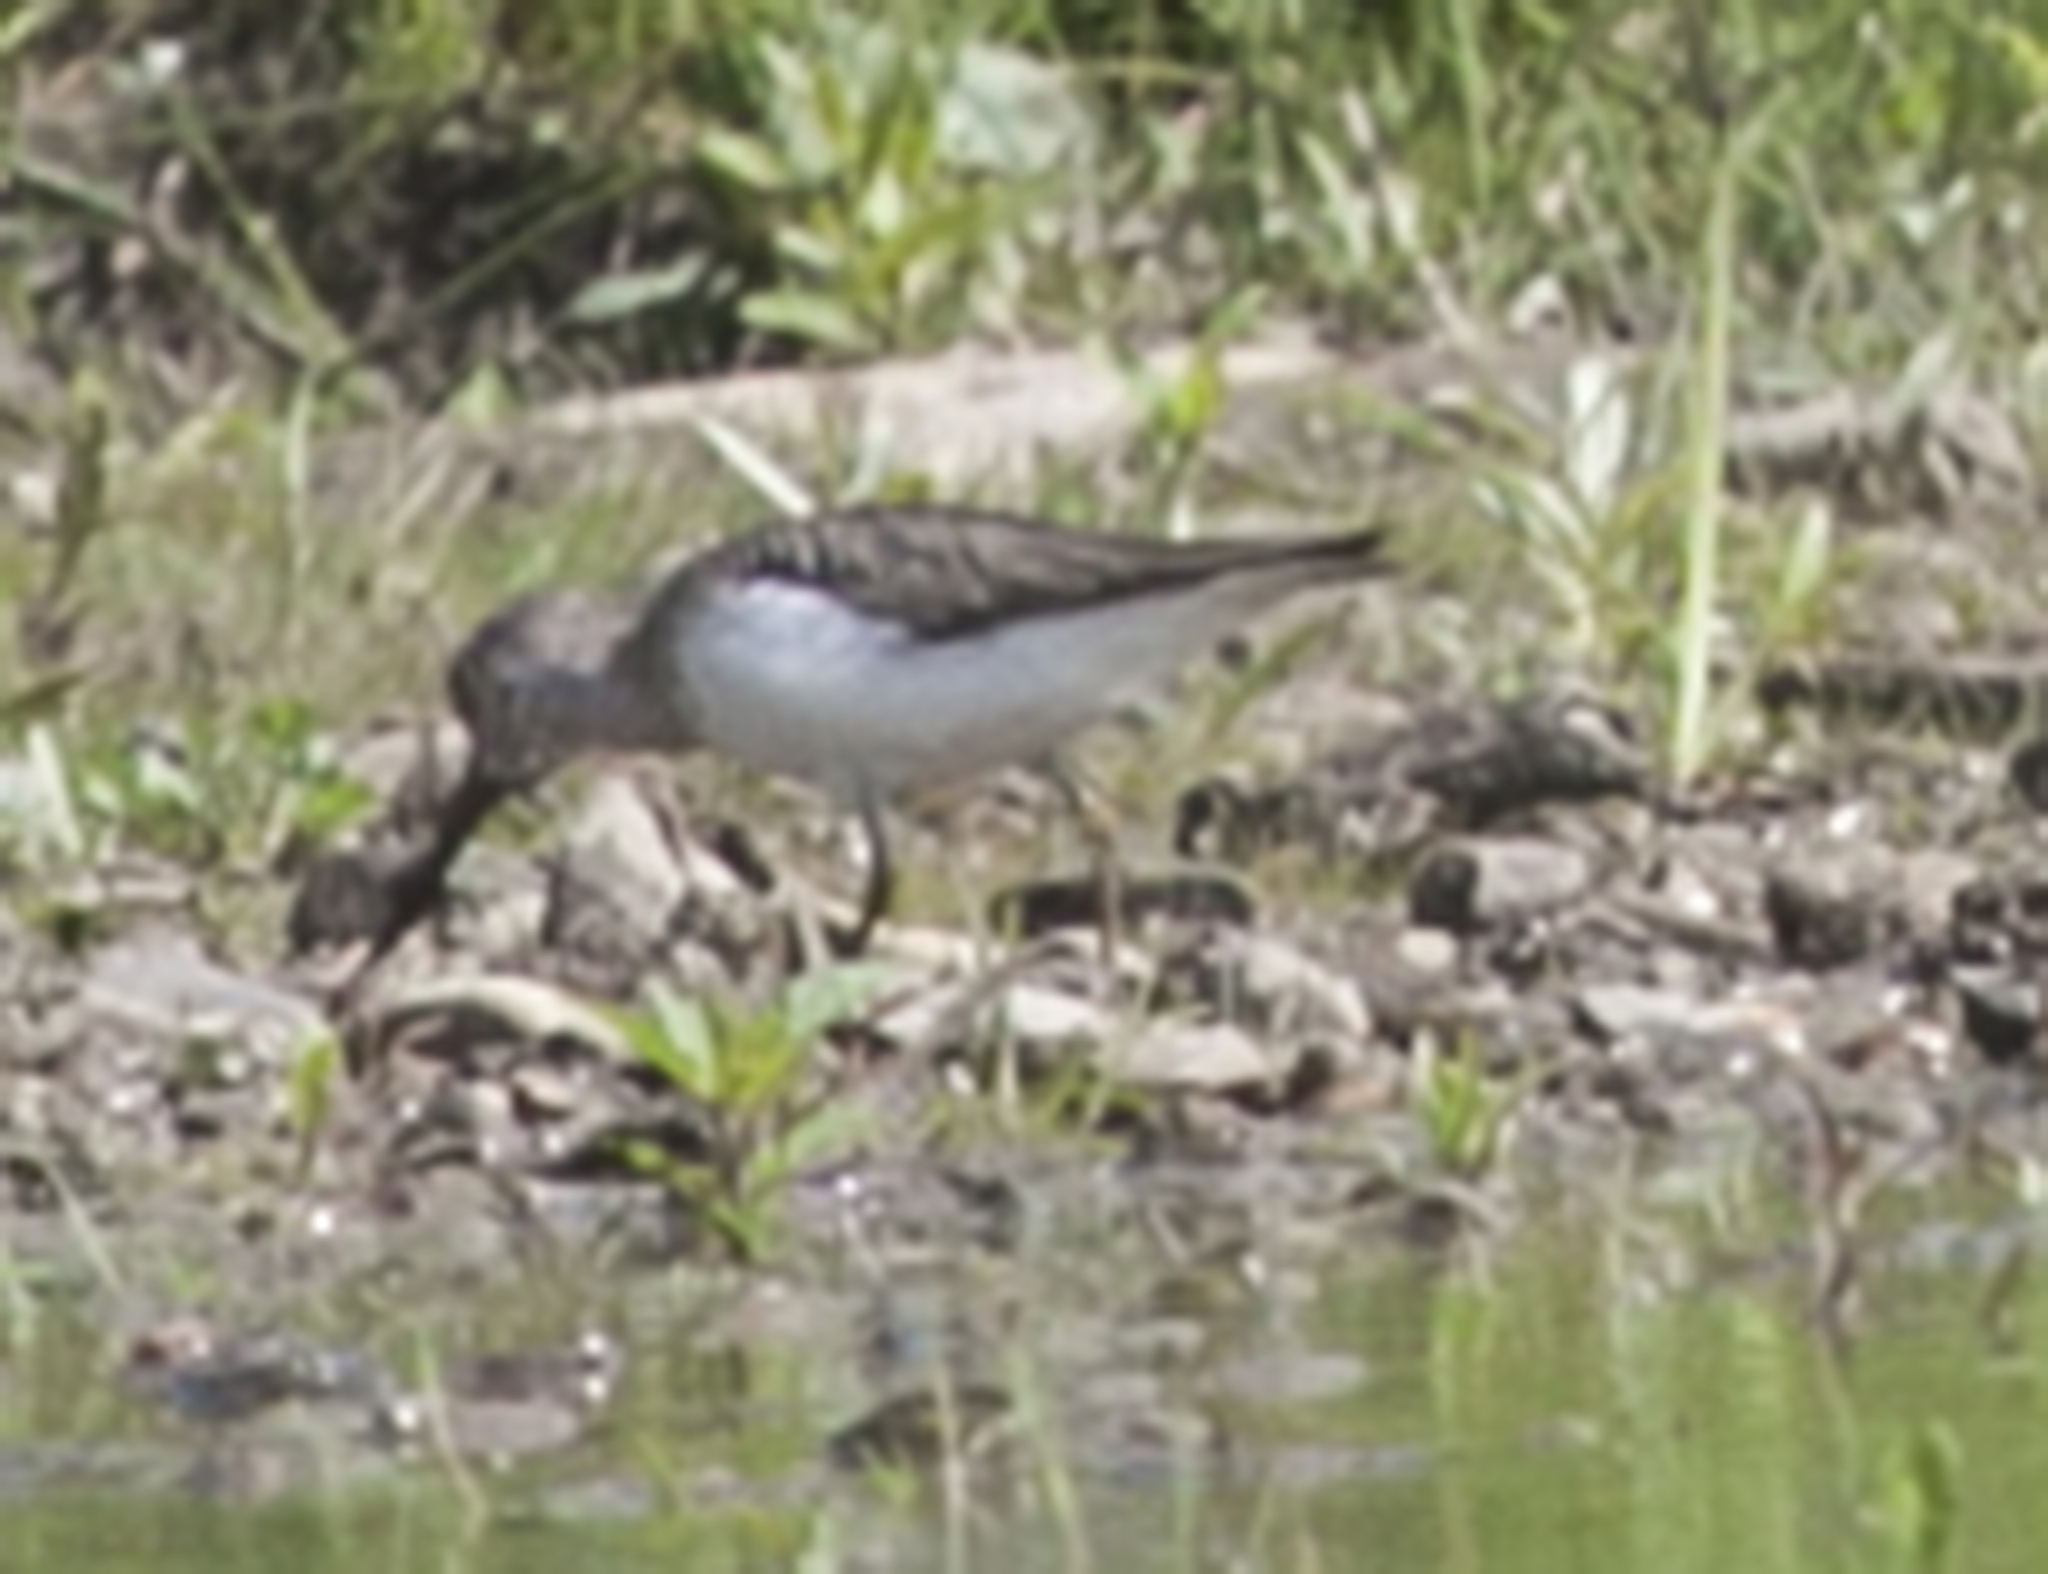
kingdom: Animalia
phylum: Chordata
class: Aves
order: Charadriiformes
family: Scolopacidae
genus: Xenus
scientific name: Xenus cinereus
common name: Terek sandpiper
